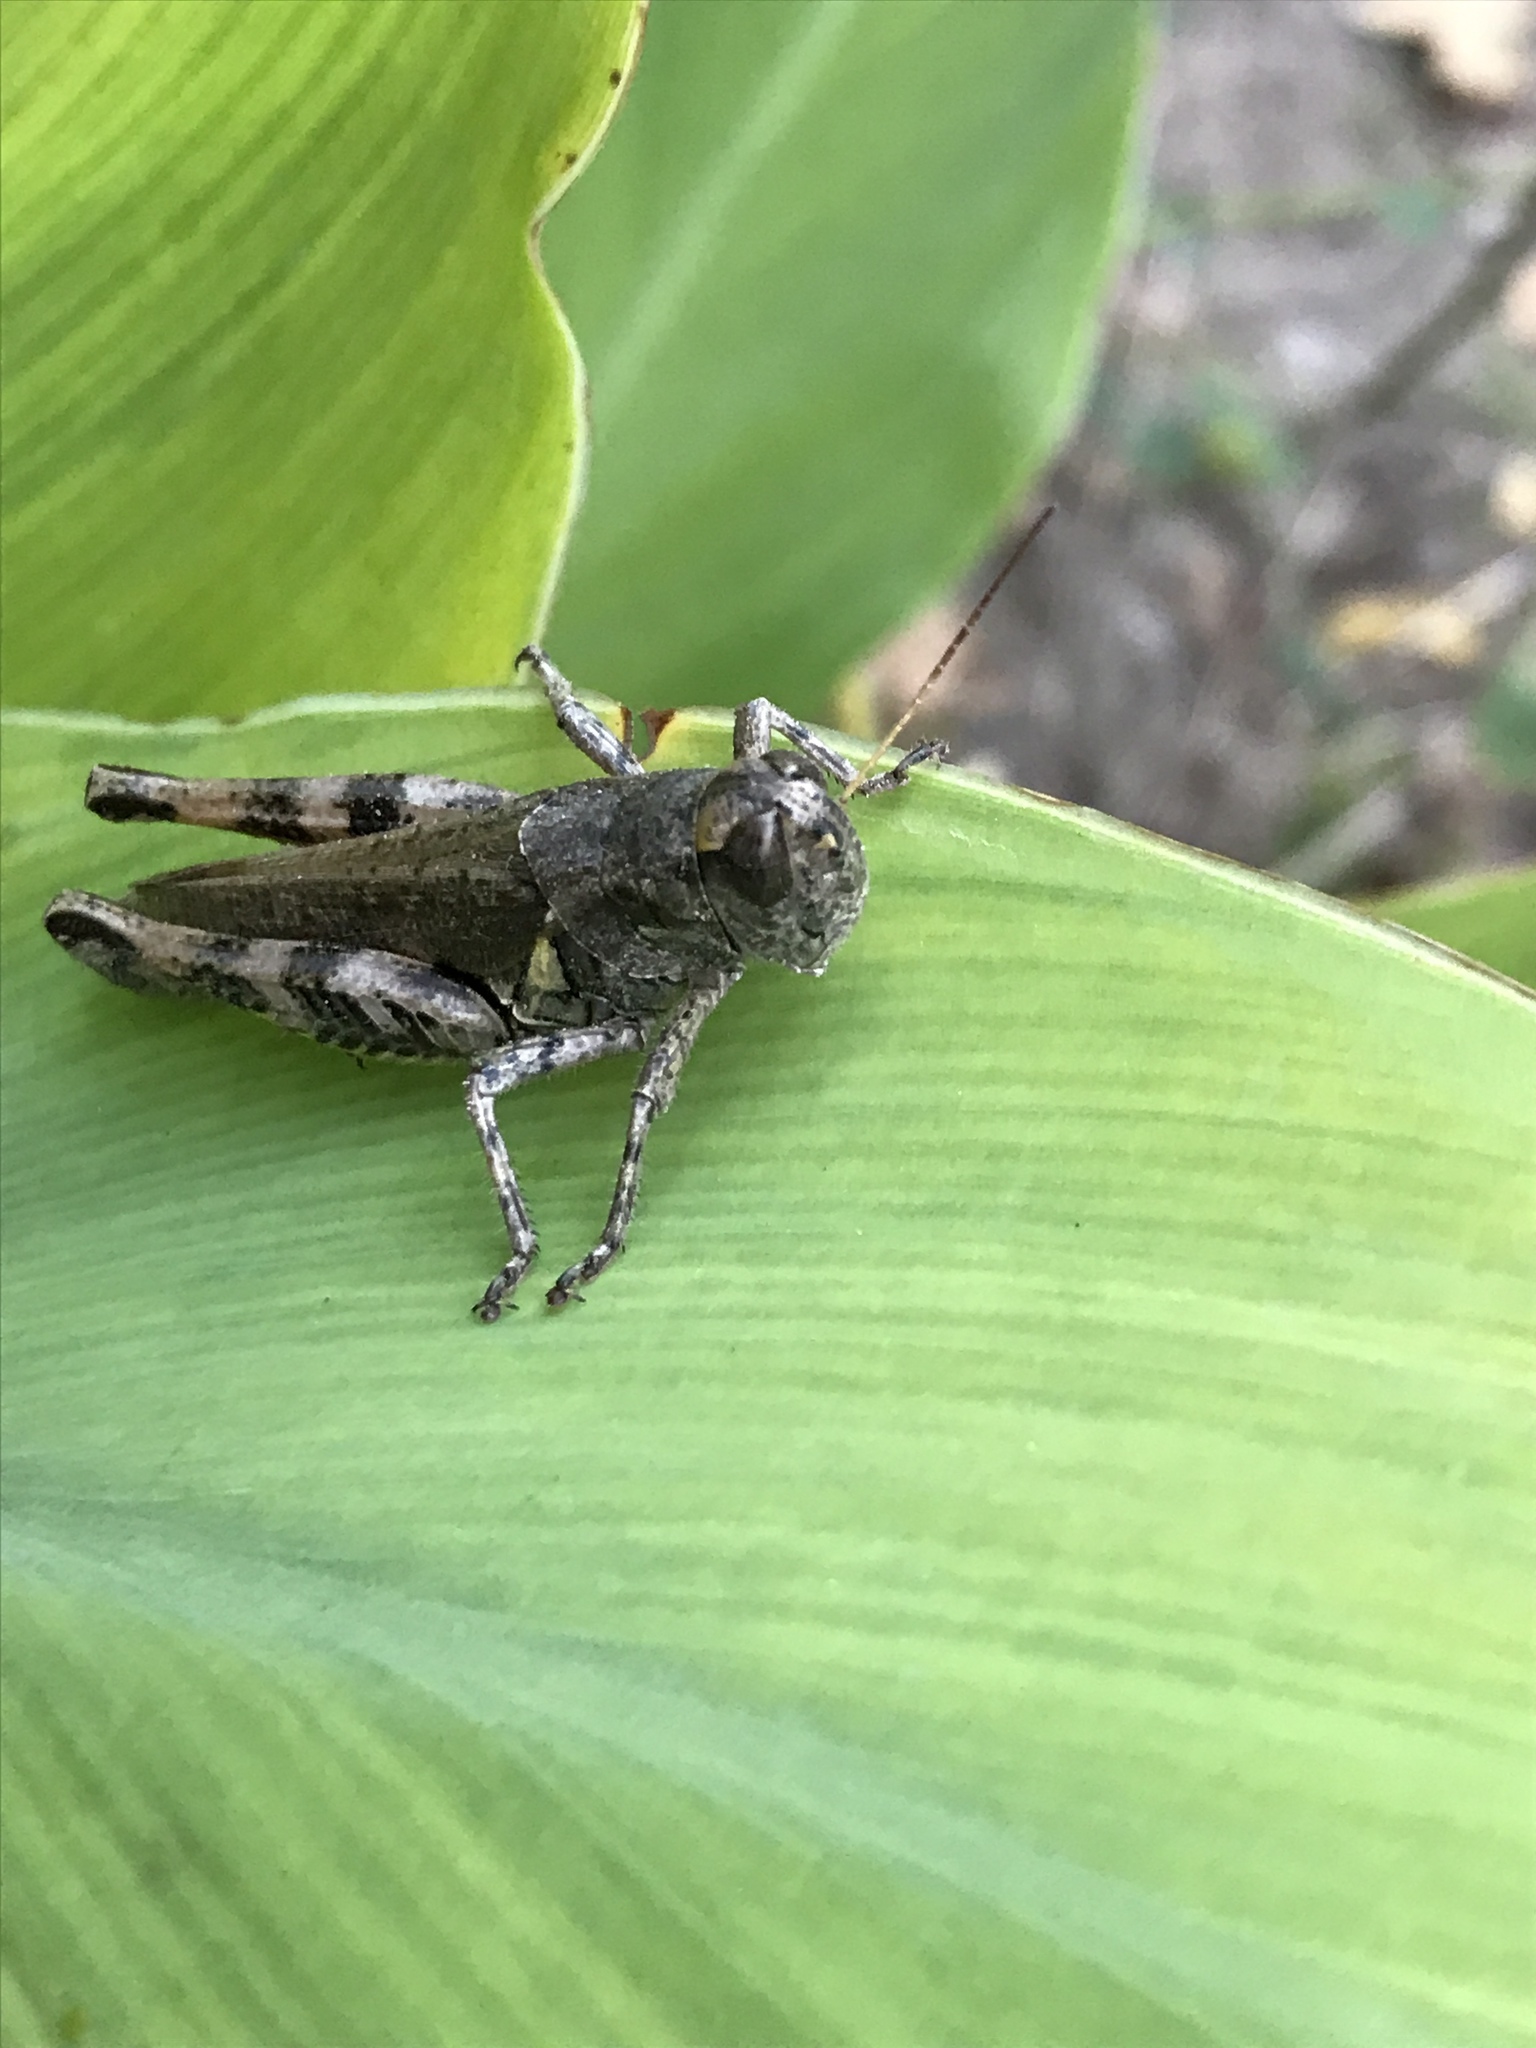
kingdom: Animalia
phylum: Arthropoda
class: Insecta
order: Orthoptera
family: Acrididae
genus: Melanoplus
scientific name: Melanoplus ponderosus
